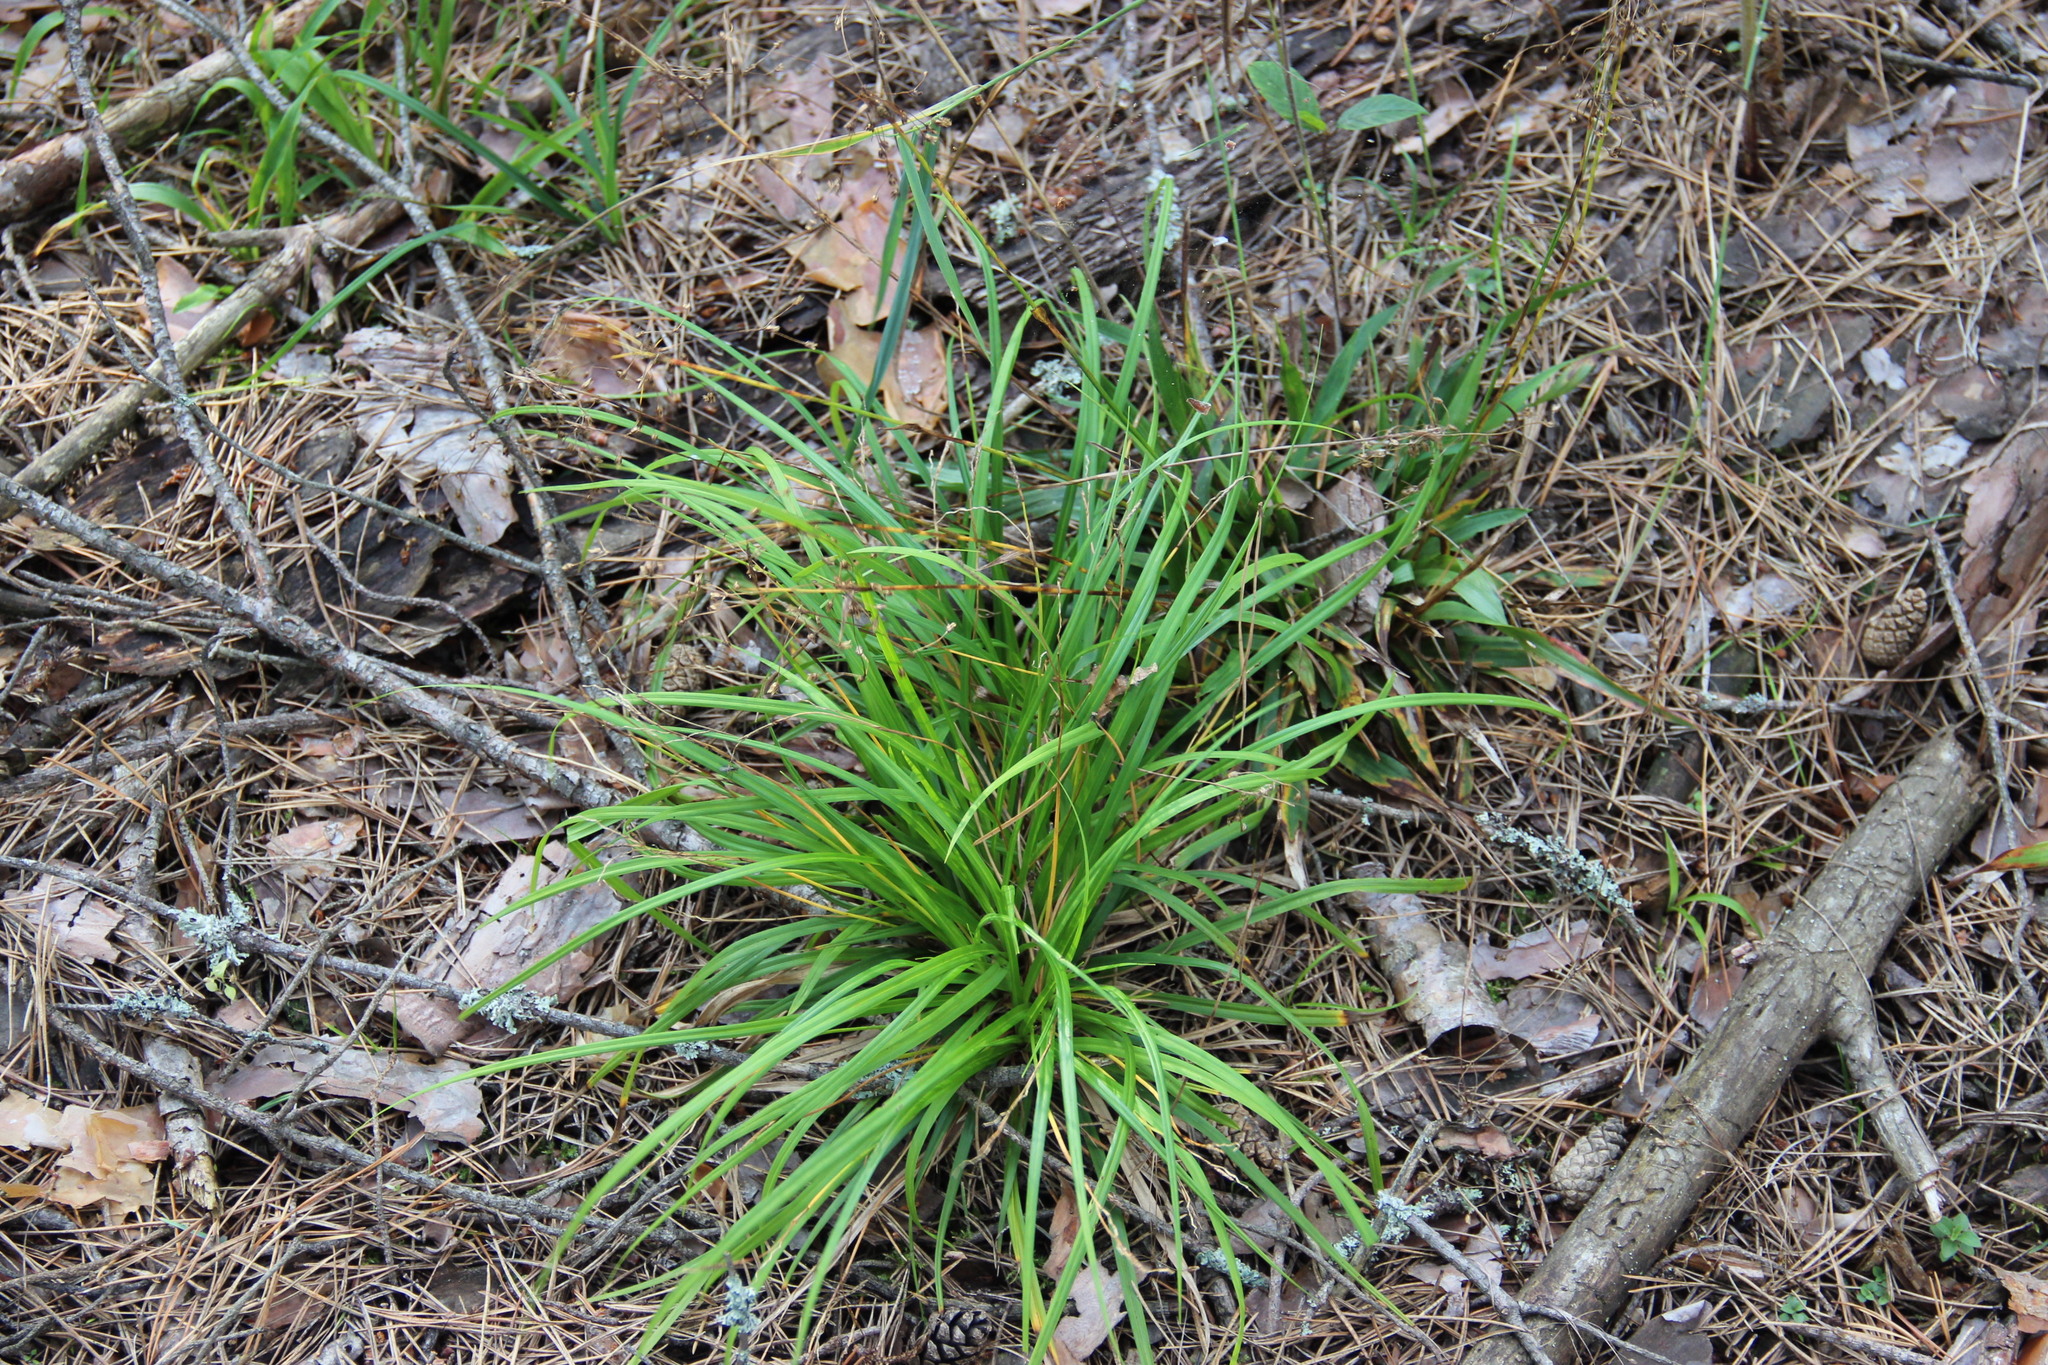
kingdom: Plantae
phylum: Tracheophyta
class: Liliopsida
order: Poales
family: Cyperaceae
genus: Carex
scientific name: Carex digitata
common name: Fingered sedge
